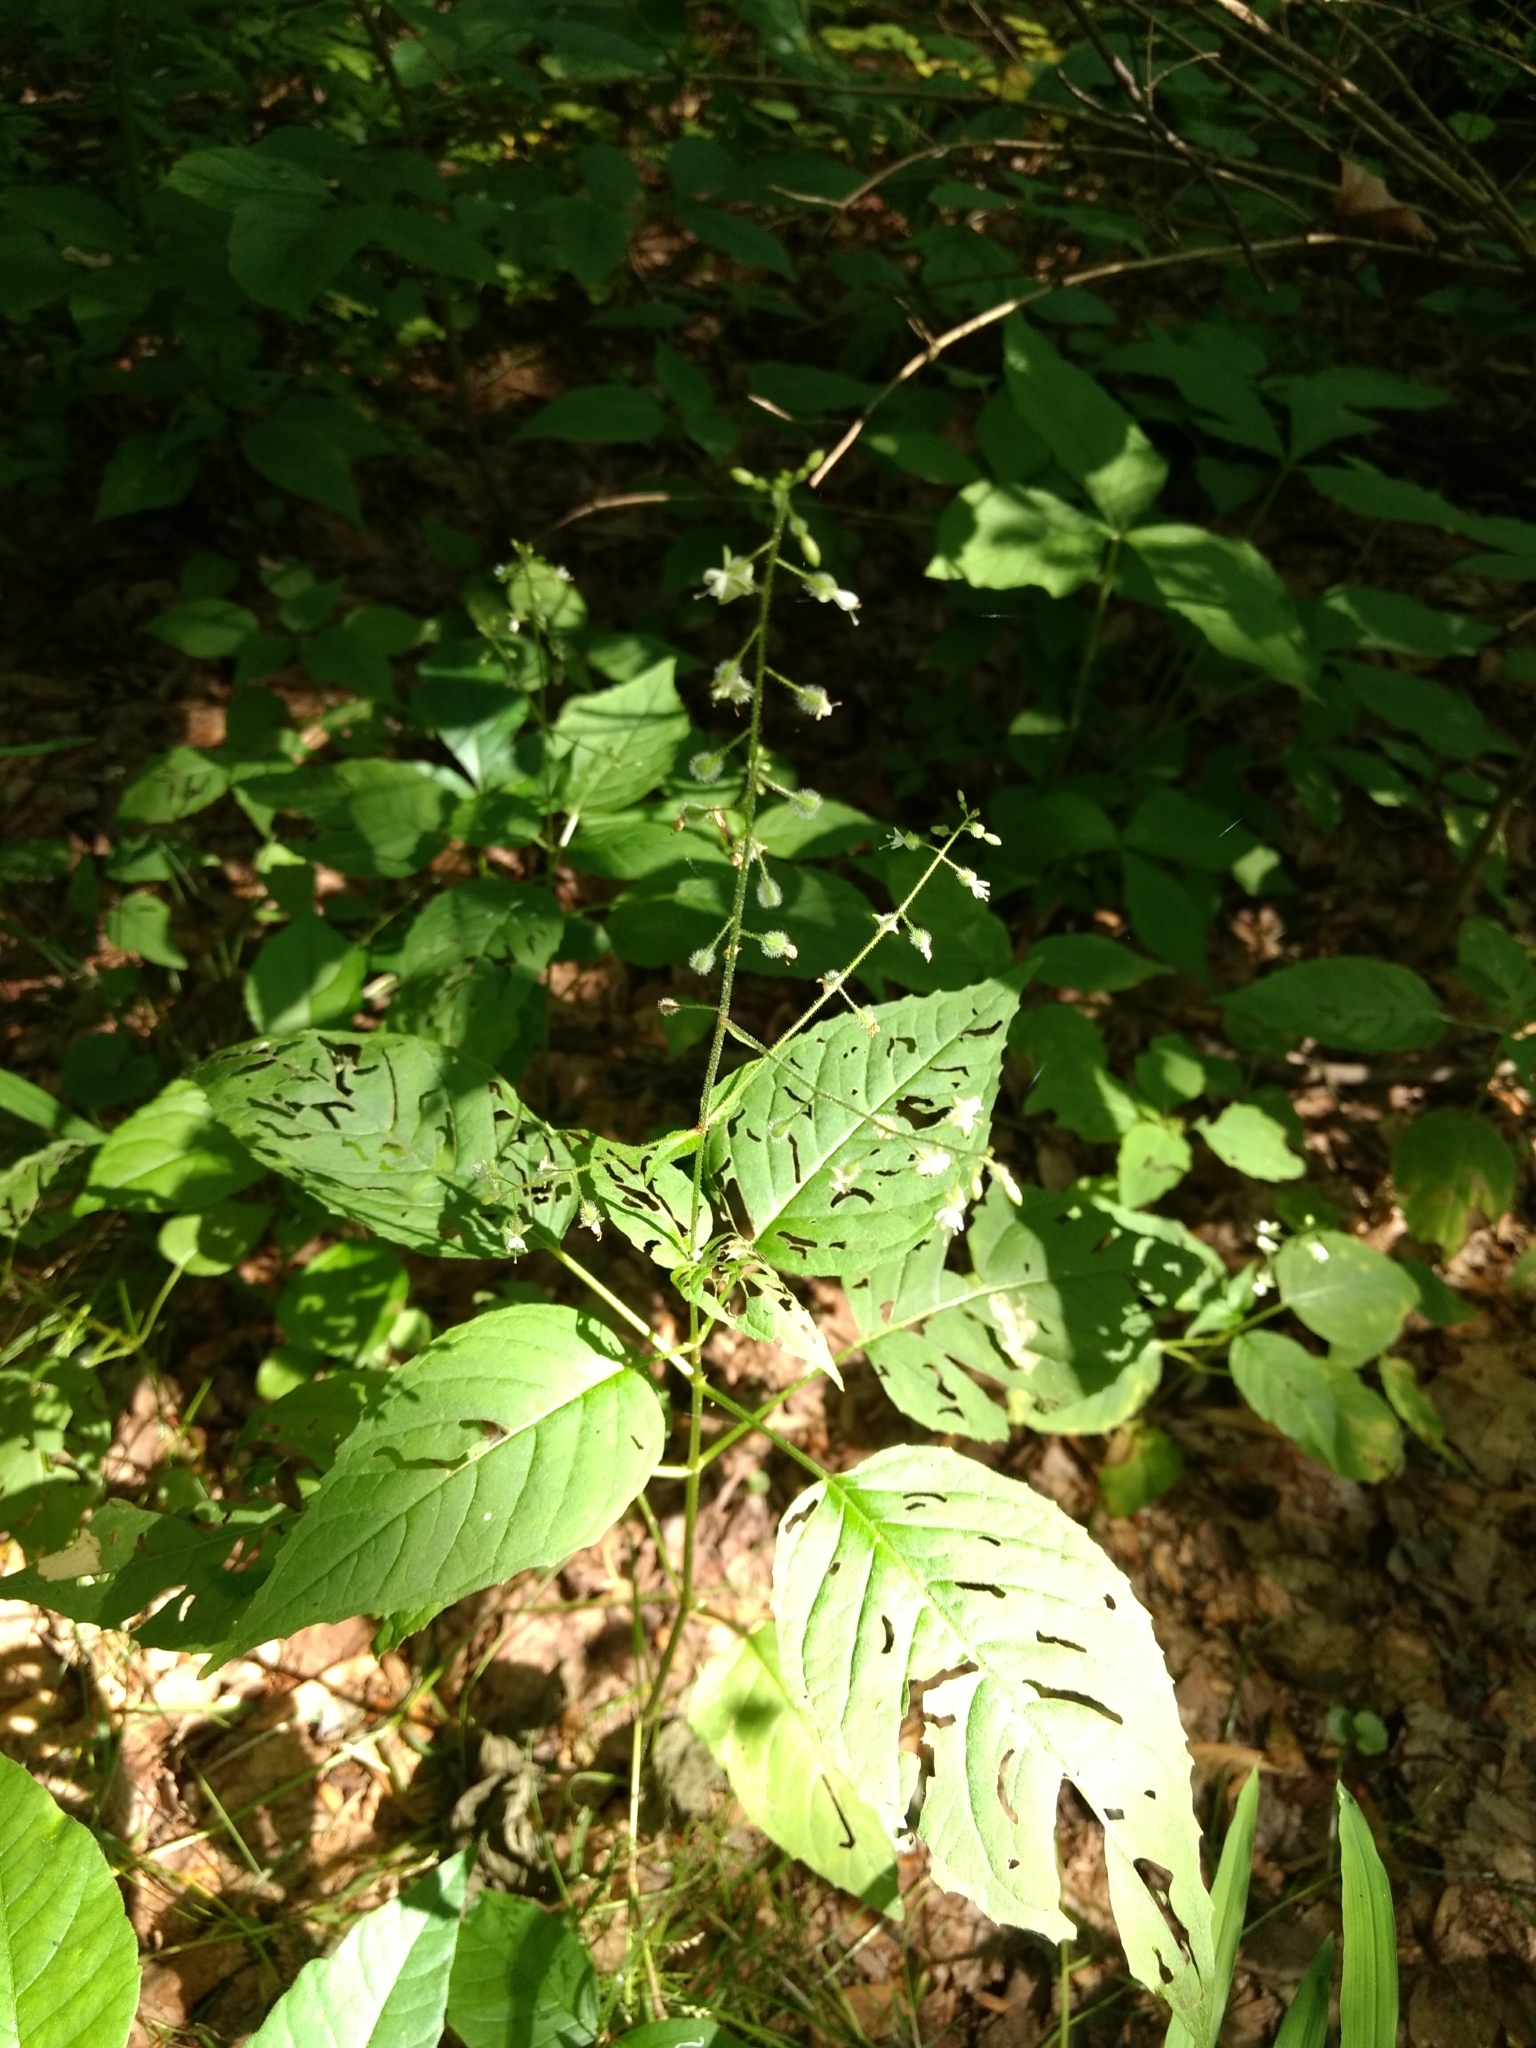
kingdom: Plantae
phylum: Tracheophyta
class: Magnoliopsida
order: Myrtales
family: Onagraceae
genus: Circaea
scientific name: Circaea canadensis
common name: Broad-leaved enchanter's nightshade
